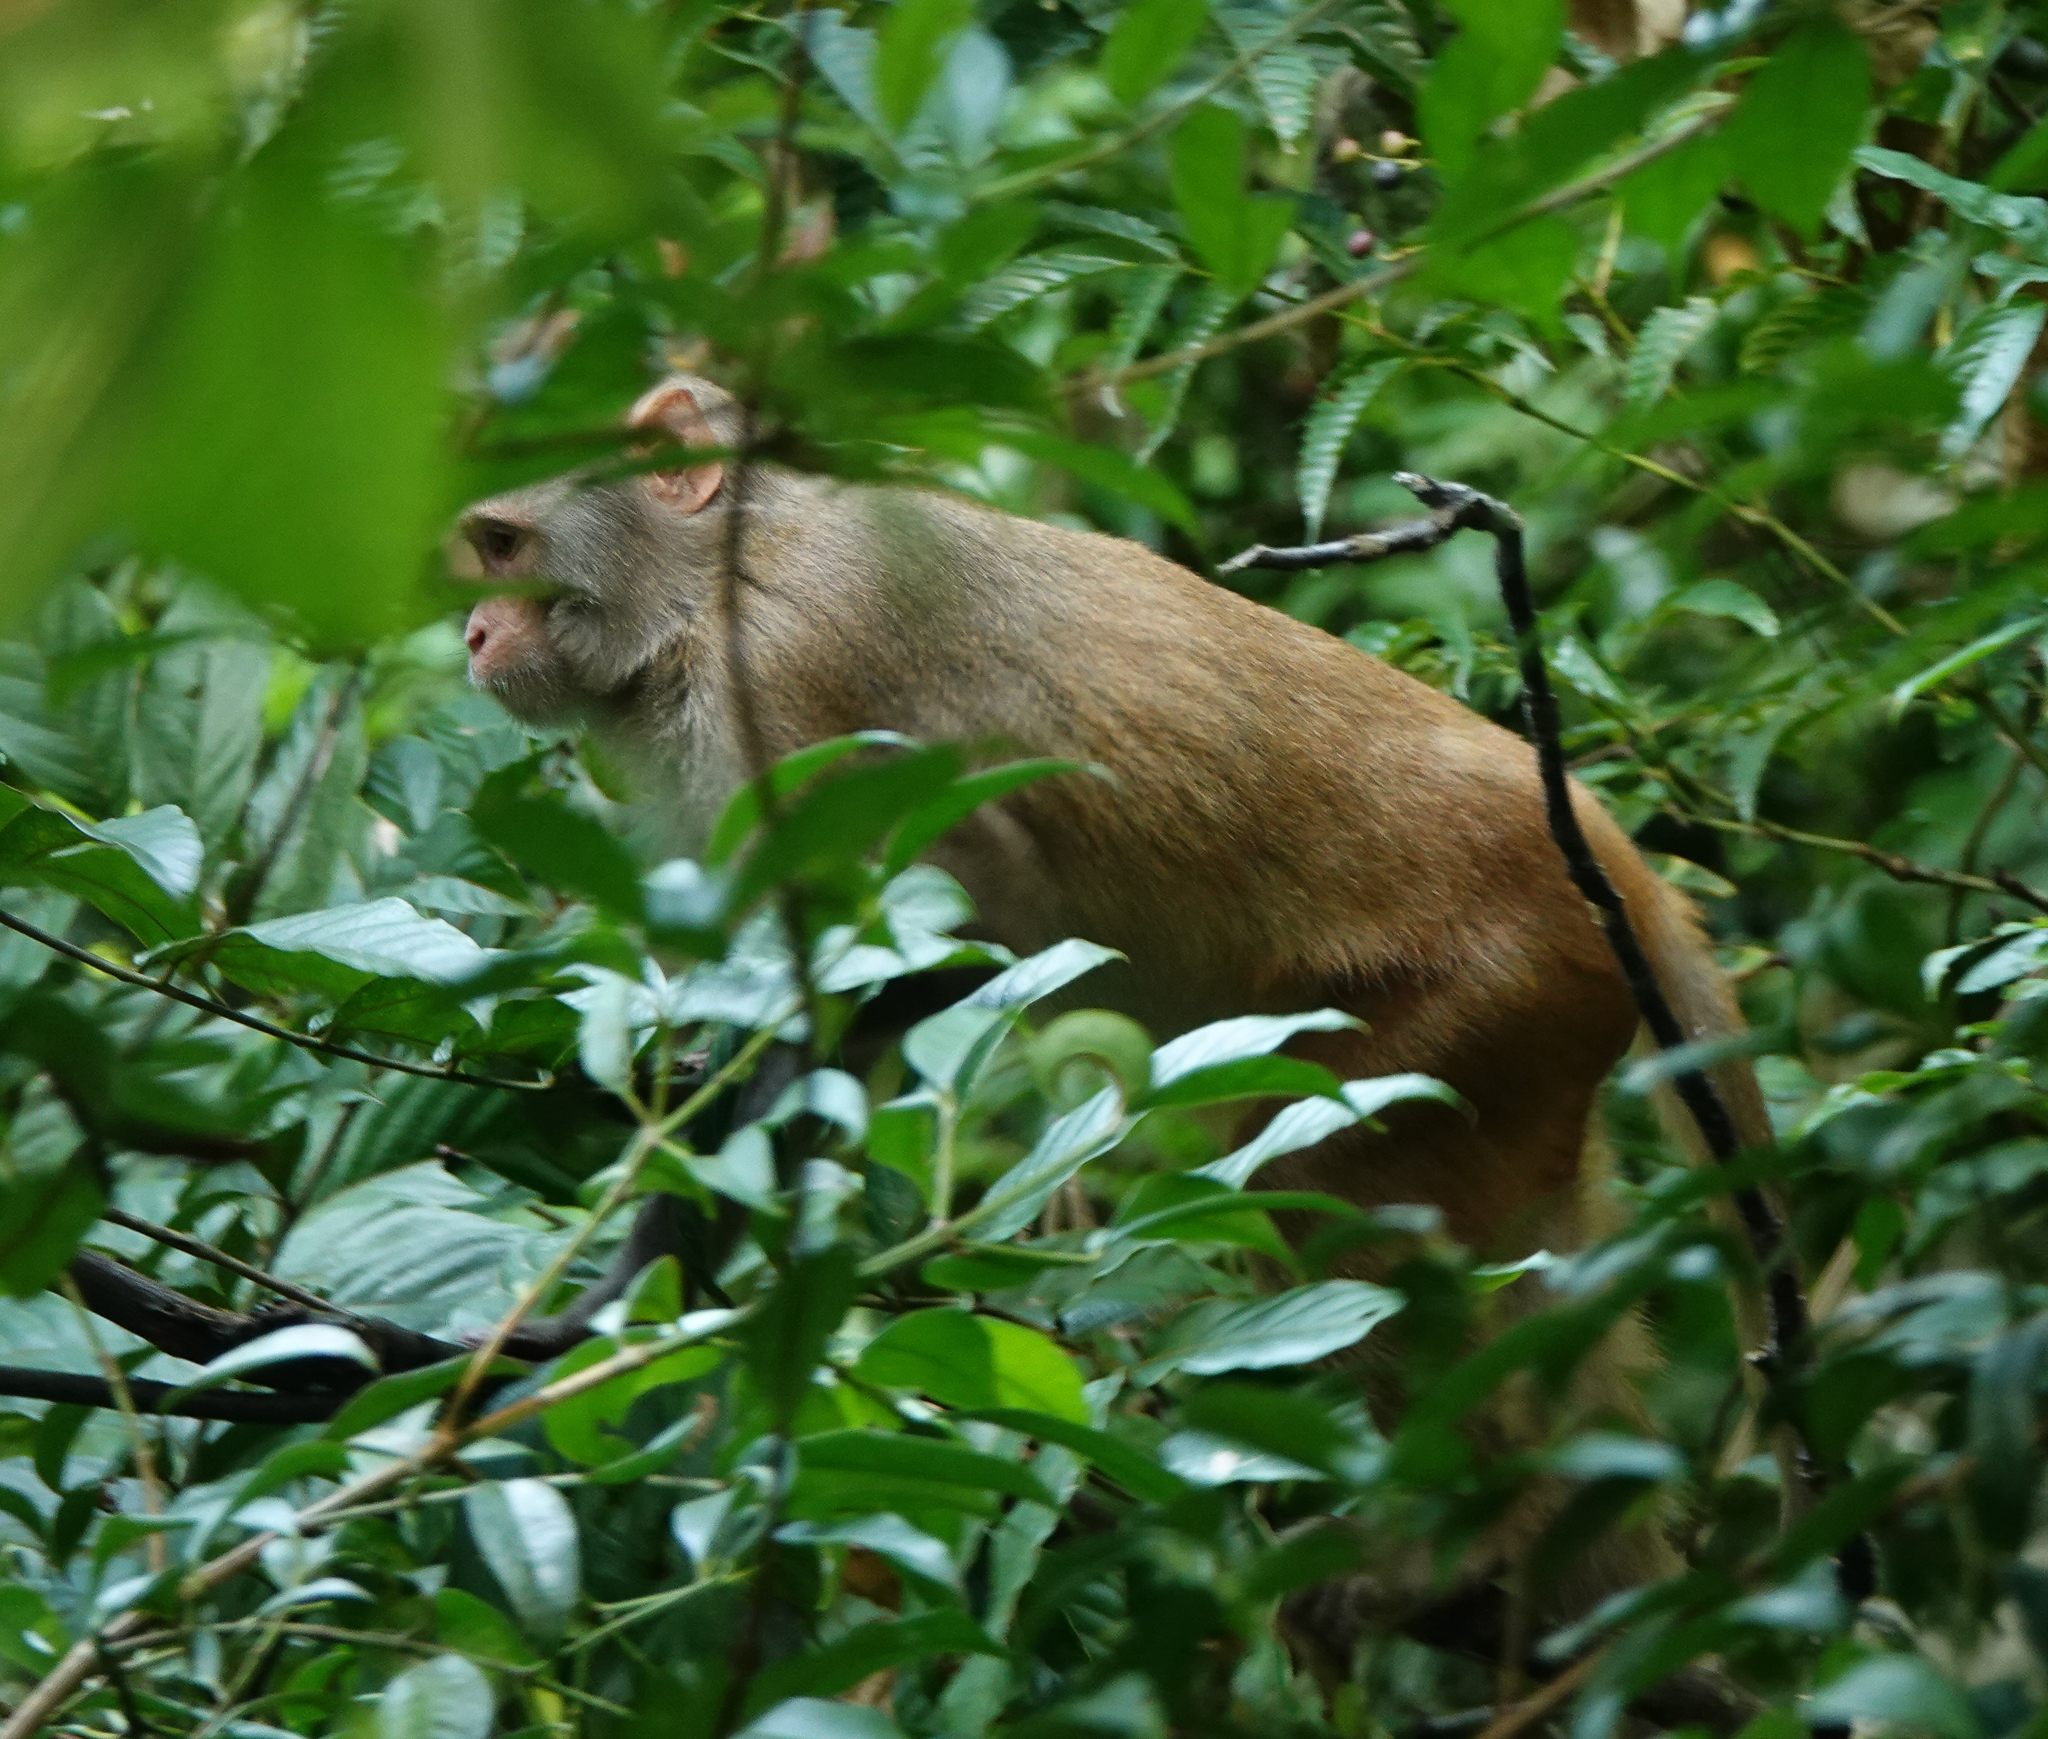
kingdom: Animalia
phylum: Chordata
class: Mammalia
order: Primates
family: Cercopithecidae
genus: Macaca
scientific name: Macaca mulatta
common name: Rhesus monkey
